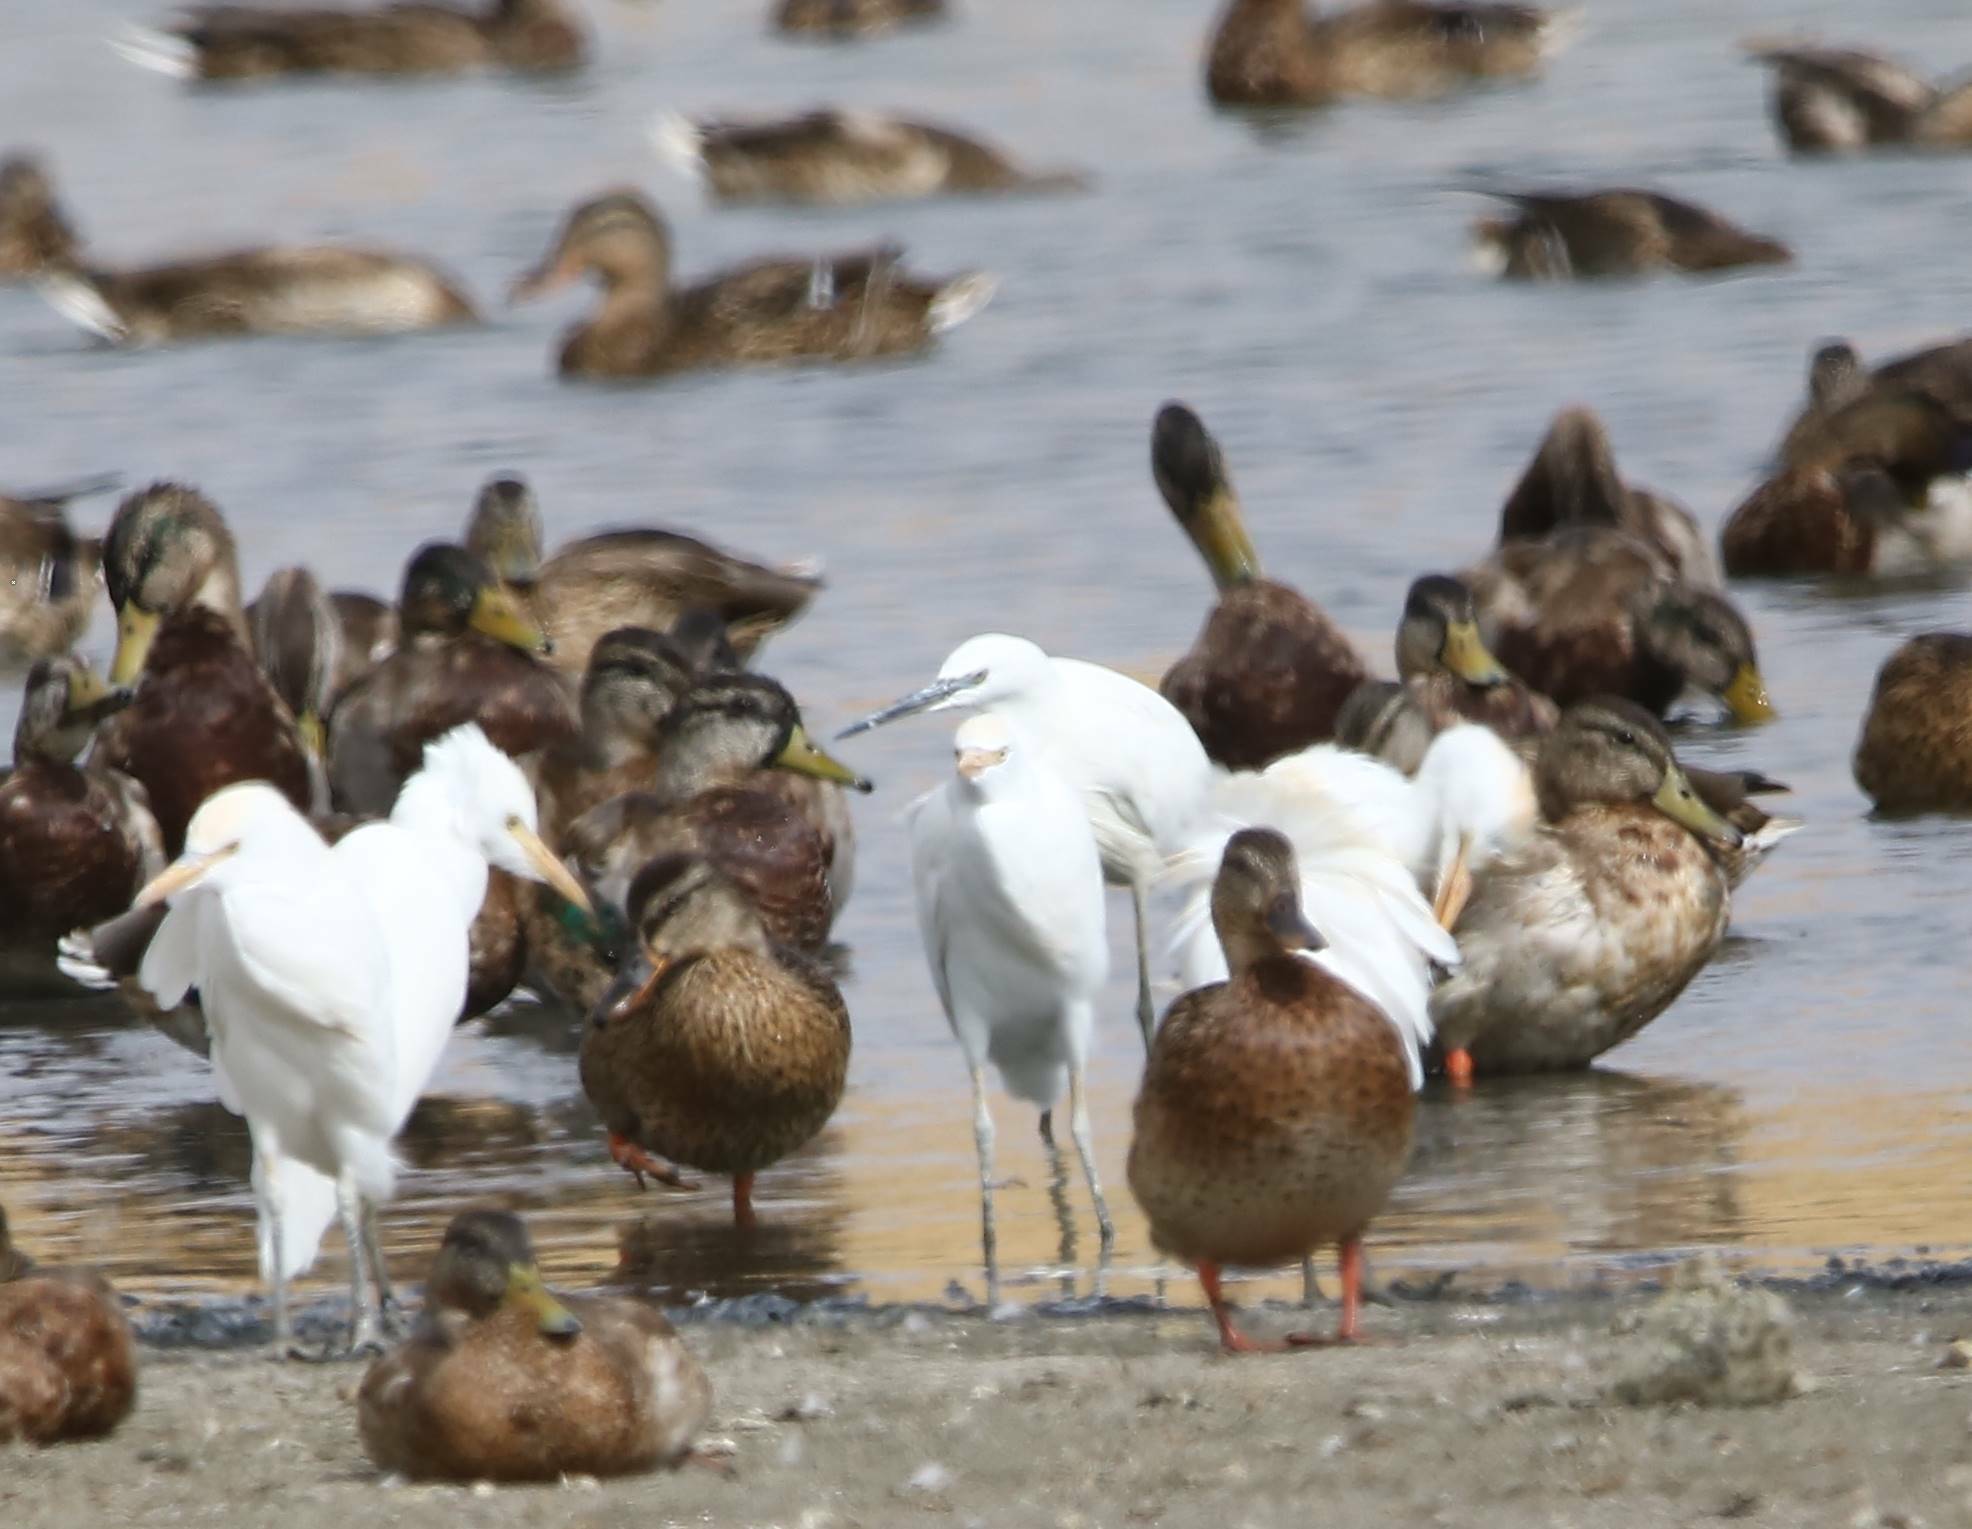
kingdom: Animalia
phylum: Chordata
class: Aves
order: Pelecaniformes
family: Ardeidae
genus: Bubulcus
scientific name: Bubulcus ibis
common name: Cattle egret
